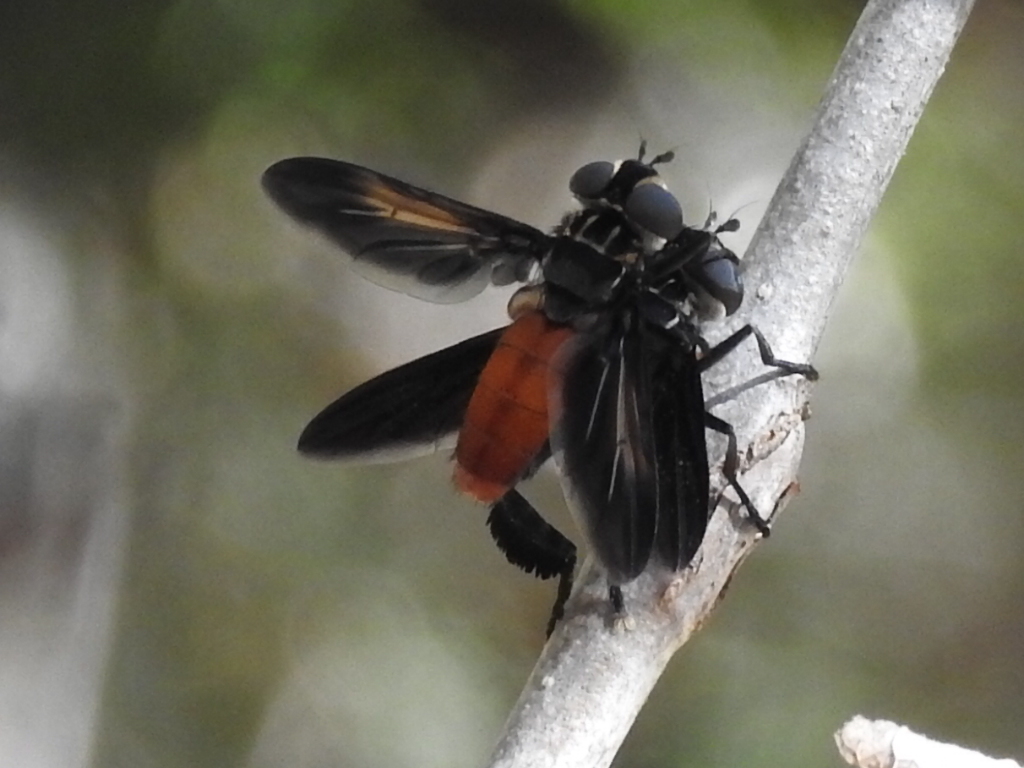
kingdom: Animalia
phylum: Arthropoda
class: Insecta
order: Diptera
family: Tachinidae
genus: Trichopoda
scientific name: Trichopoda pennipes
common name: Tachinid fly
